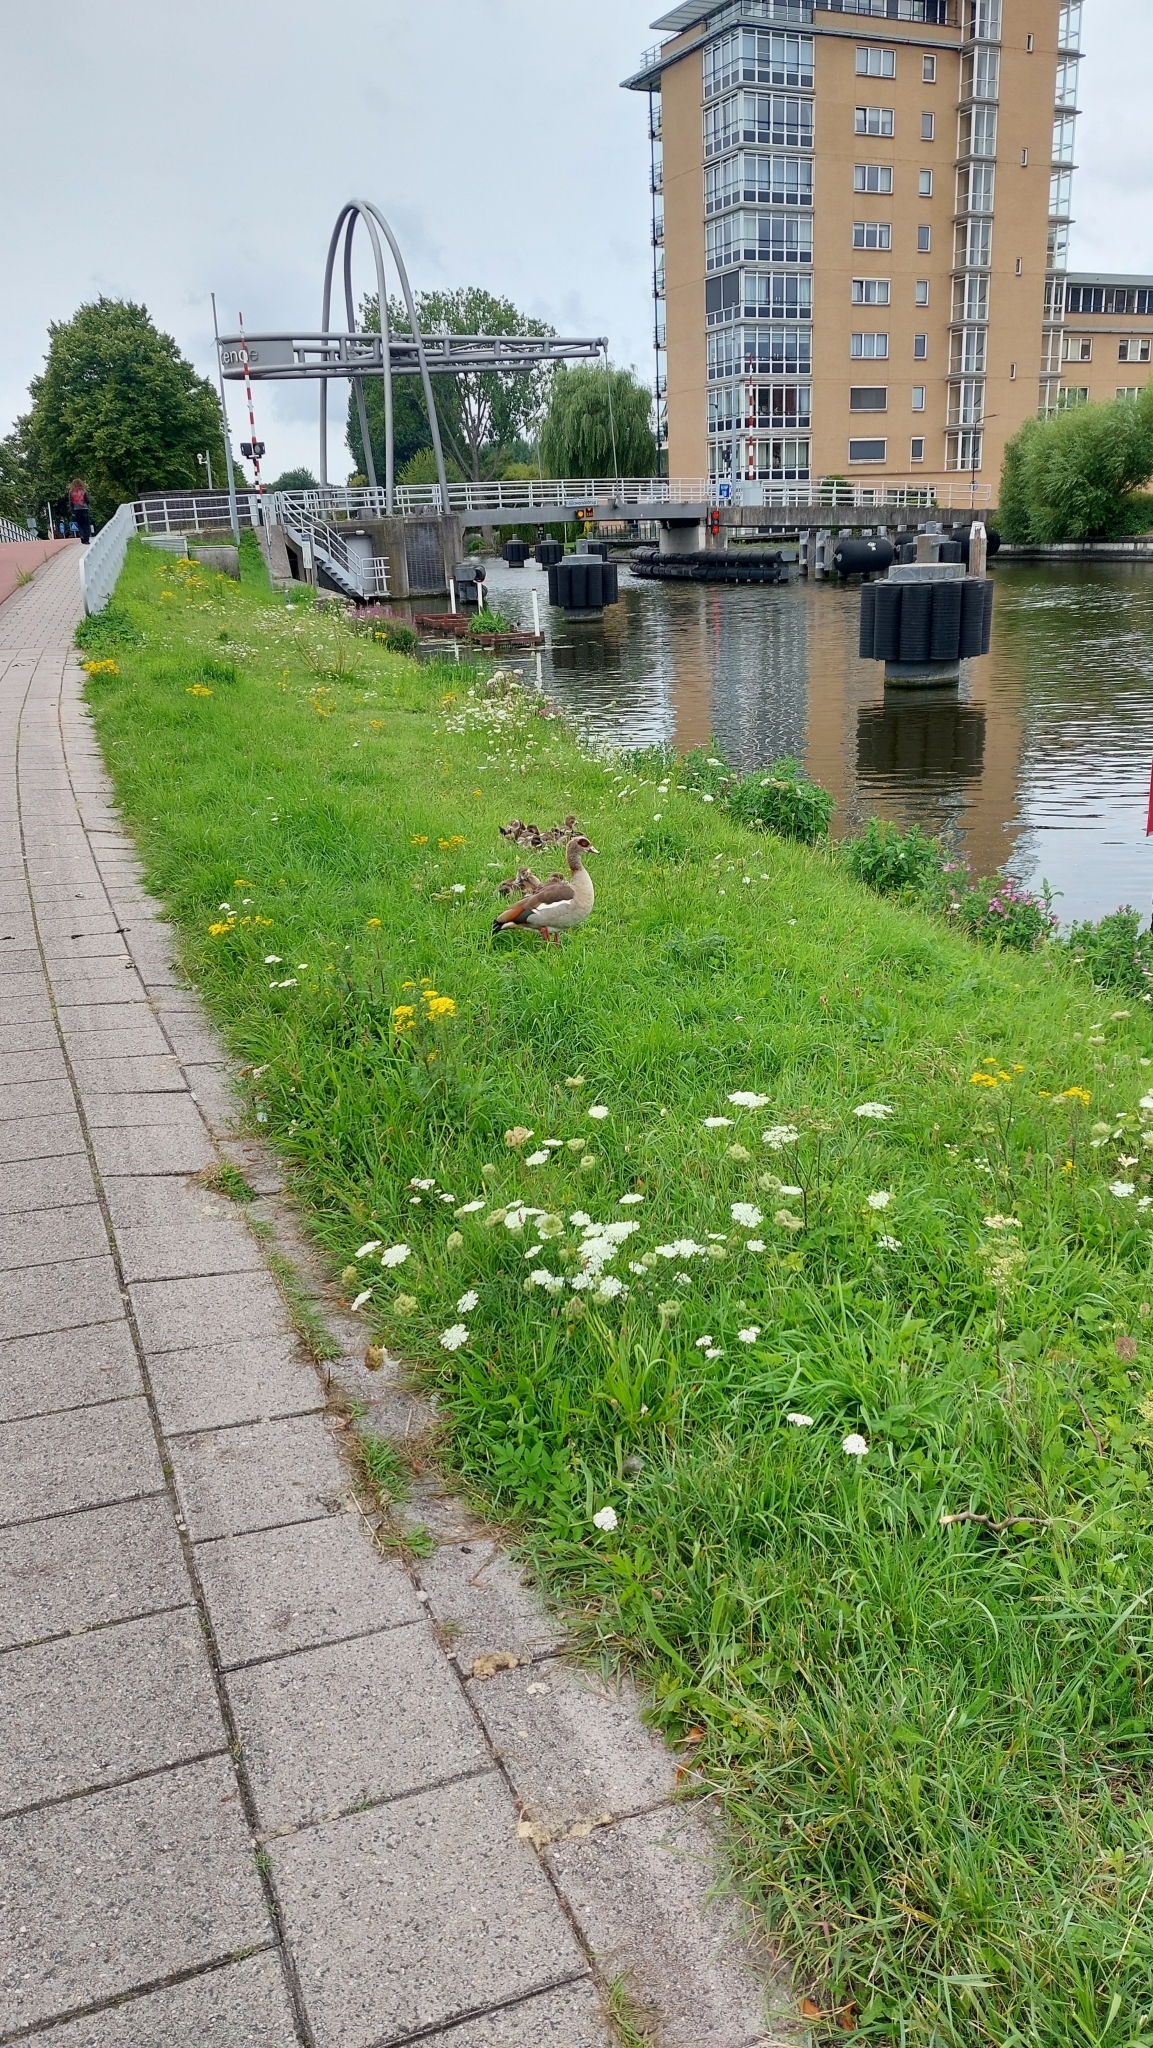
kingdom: Animalia
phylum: Chordata
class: Aves
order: Anseriformes
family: Anatidae
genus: Alopochen
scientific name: Alopochen aegyptiaca
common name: Egyptian goose
